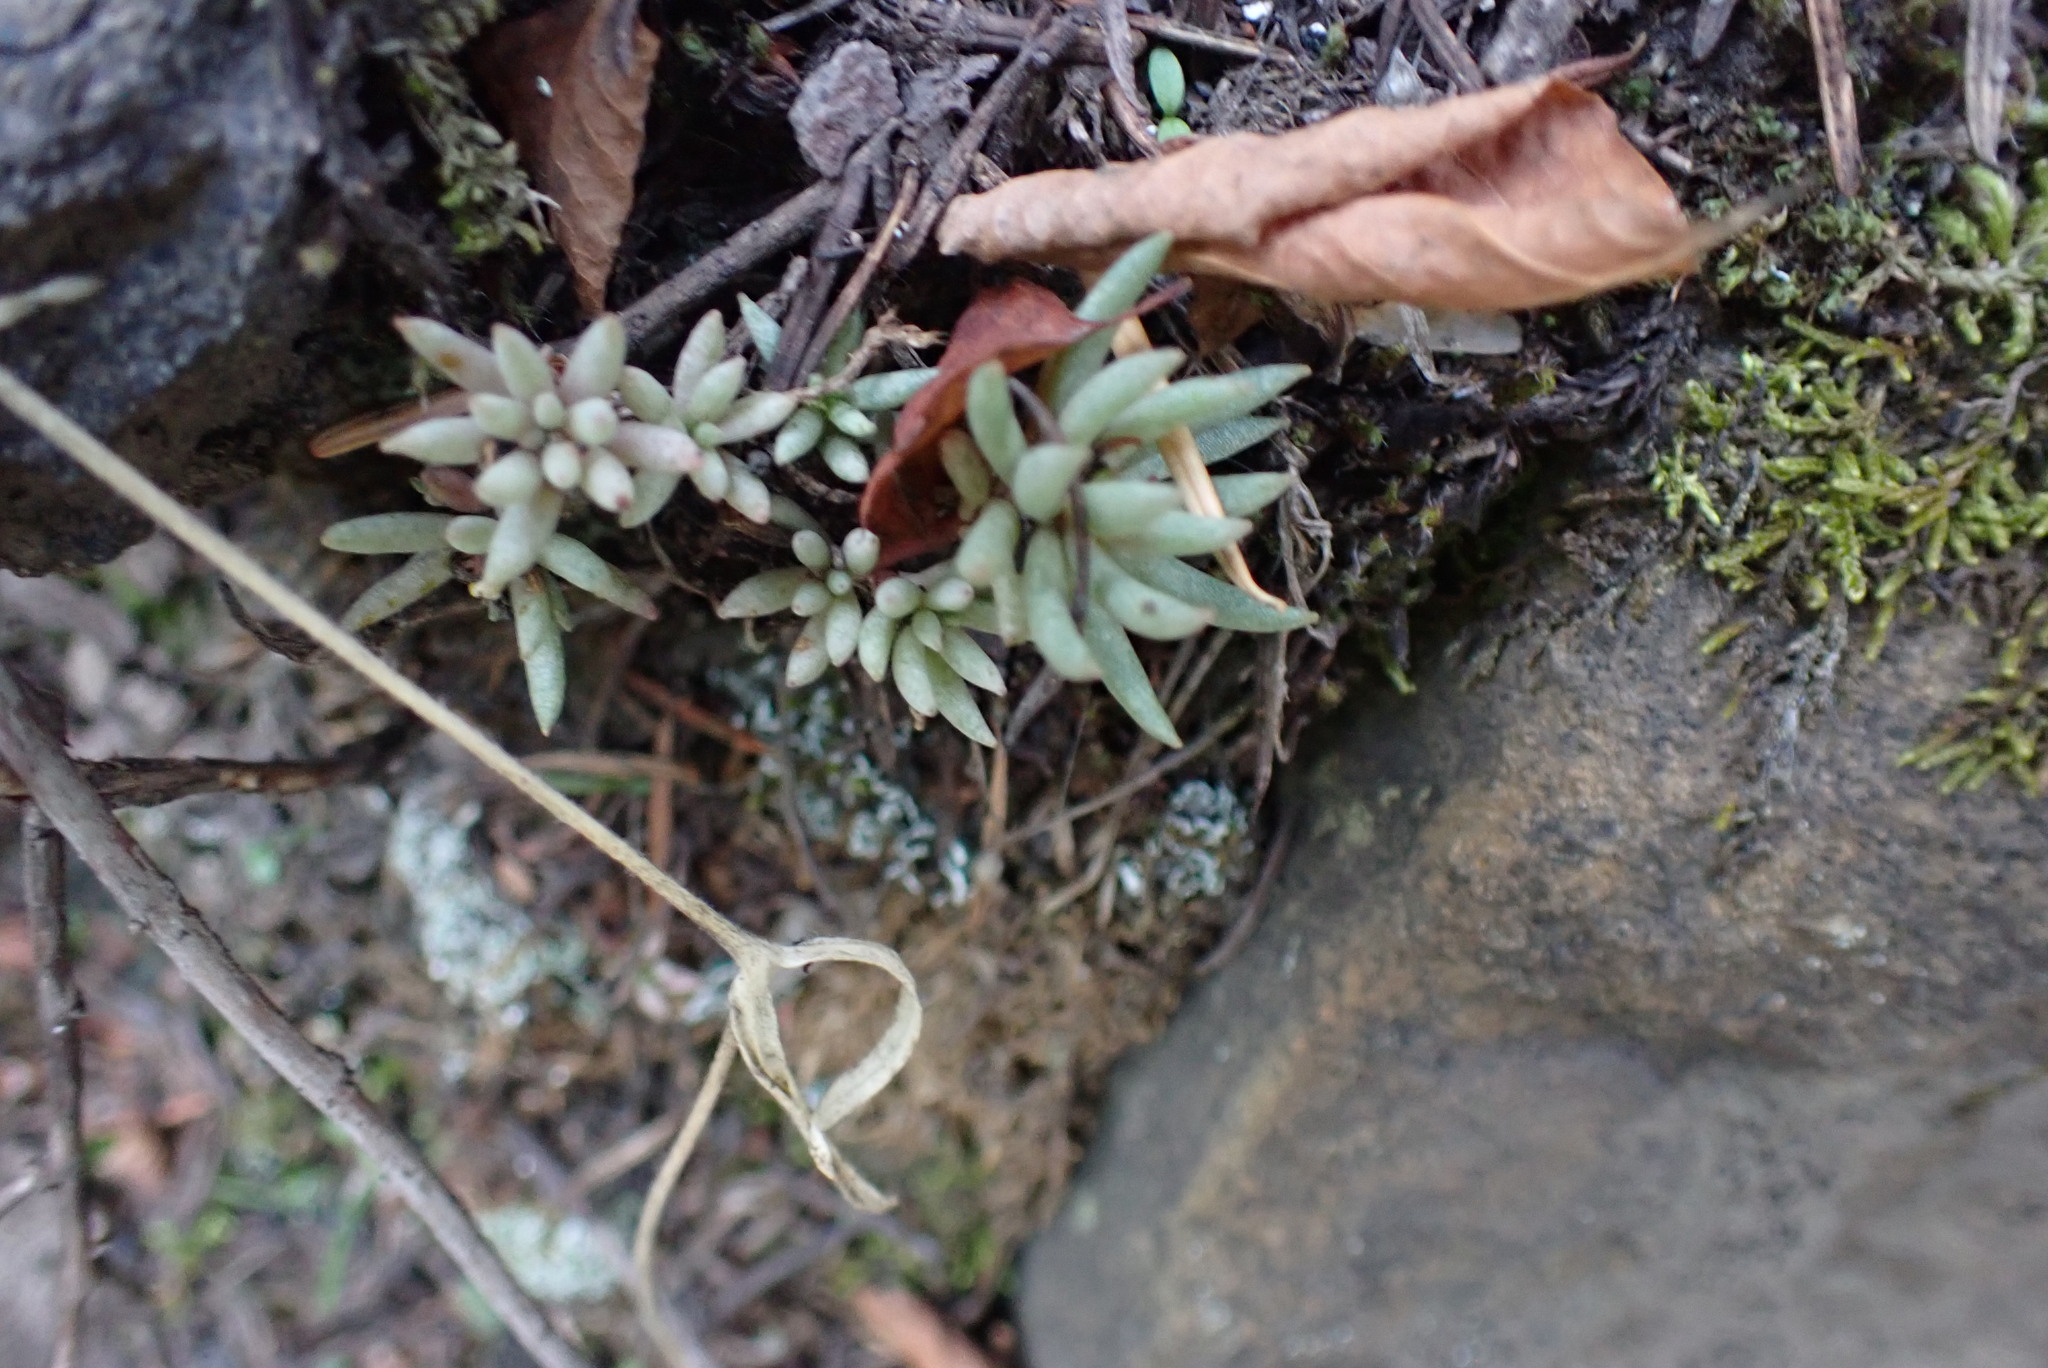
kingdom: Plantae
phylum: Tracheophyta
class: Magnoliopsida
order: Saxifragales
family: Crassulaceae
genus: Sedum
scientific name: Sedum lanceolatum
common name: Common stonecrop
